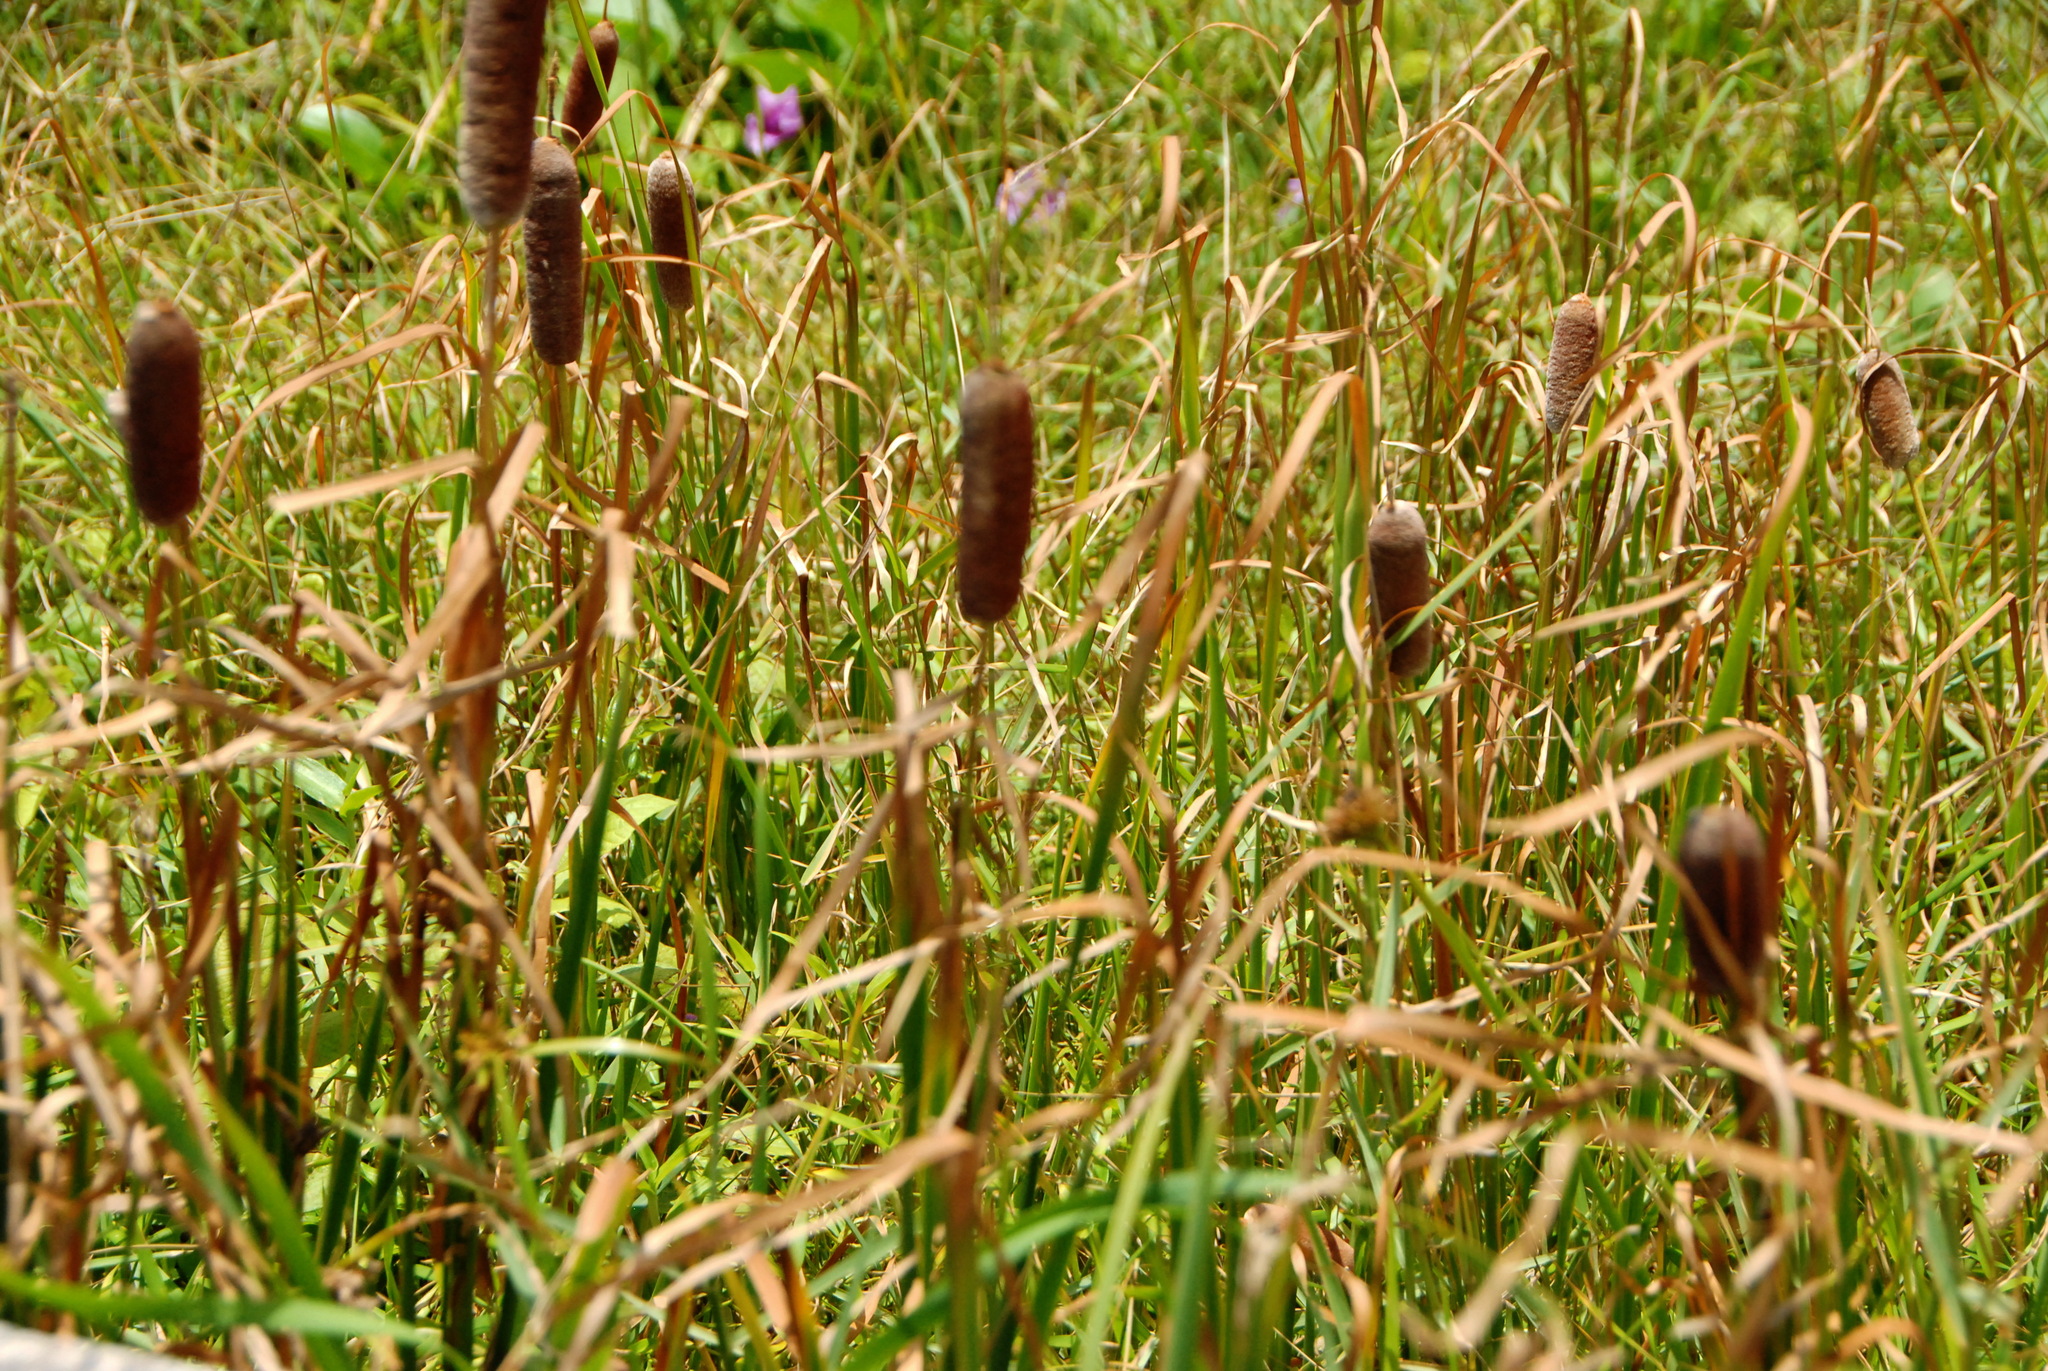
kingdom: Plantae
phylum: Tracheophyta
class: Liliopsida
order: Poales
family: Typhaceae
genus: Typha
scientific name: Typha orientalis
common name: Bullrush
